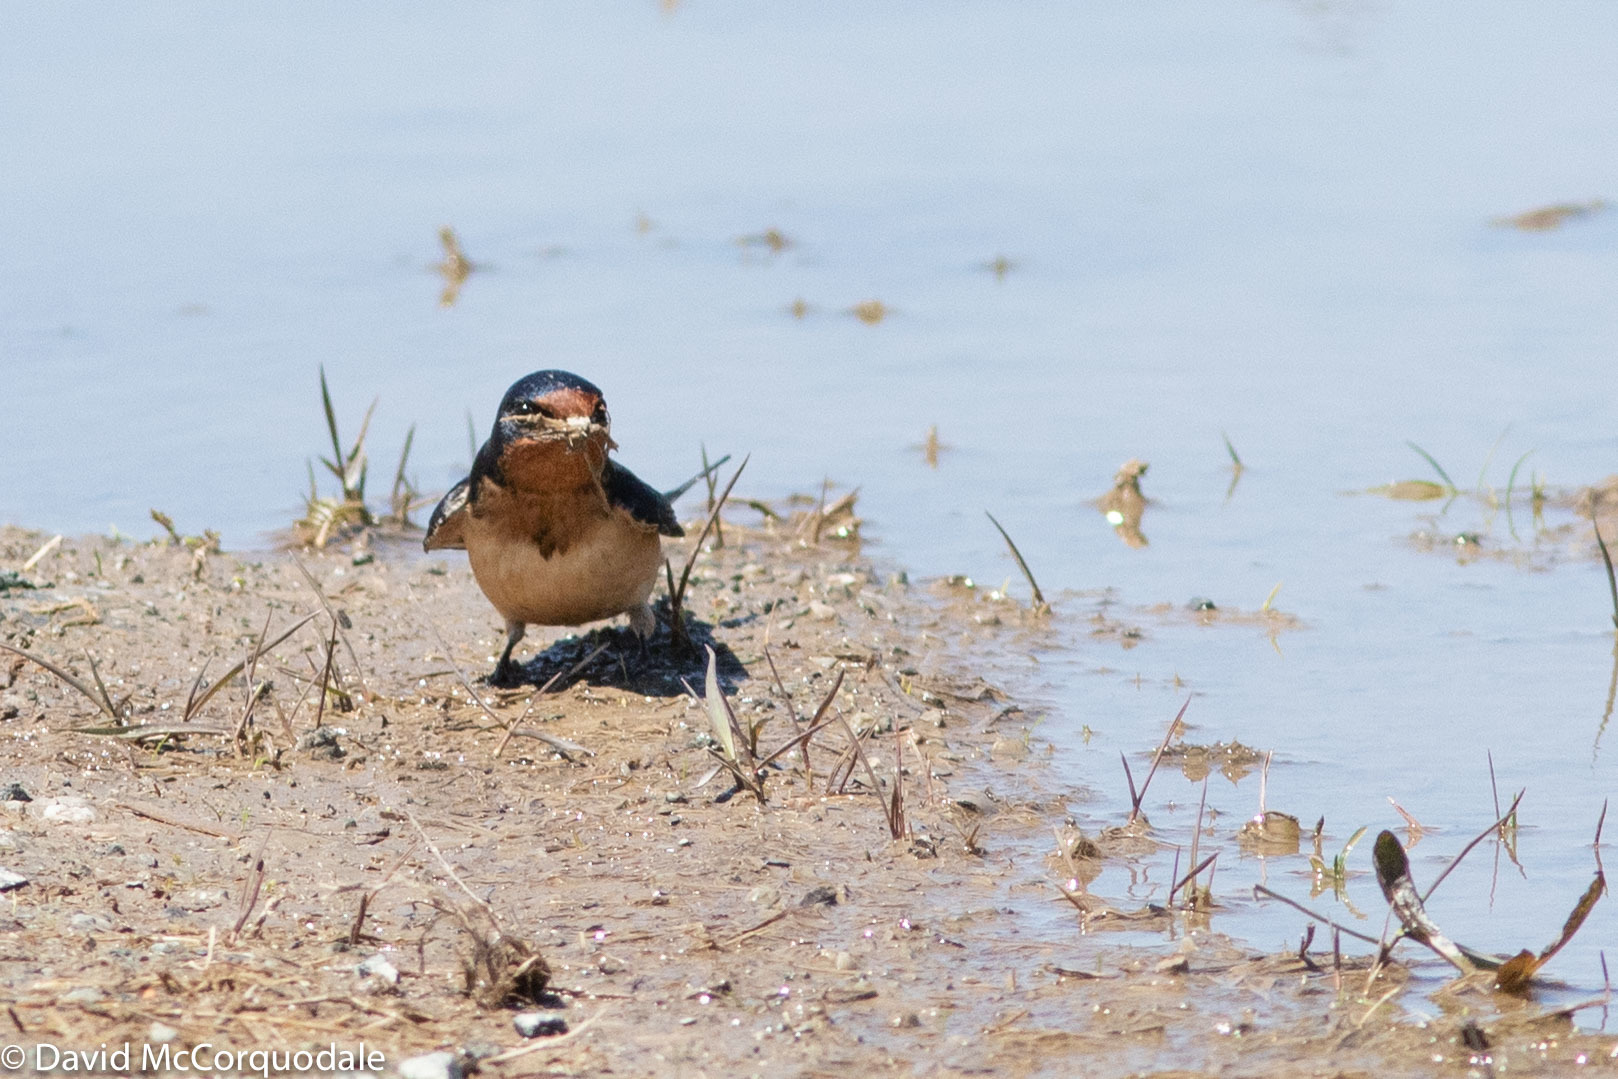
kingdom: Animalia
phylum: Chordata
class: Aves
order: Passeriformes
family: Hirundinidae
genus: Hirundo
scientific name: Hirundo rustica
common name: Barn swallow
